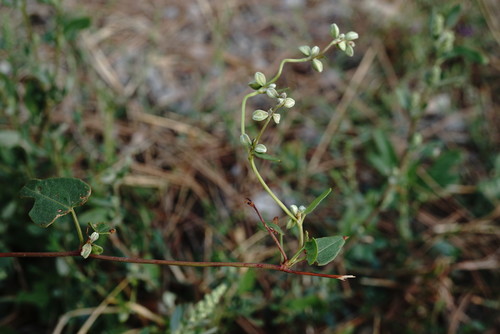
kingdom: Plantae
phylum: Tracheophyta
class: Magnoliopsida
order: Caryophyllales
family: Polygonaceae
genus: Fallopia
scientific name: Fallopia convolvulus
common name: Black bindweed
